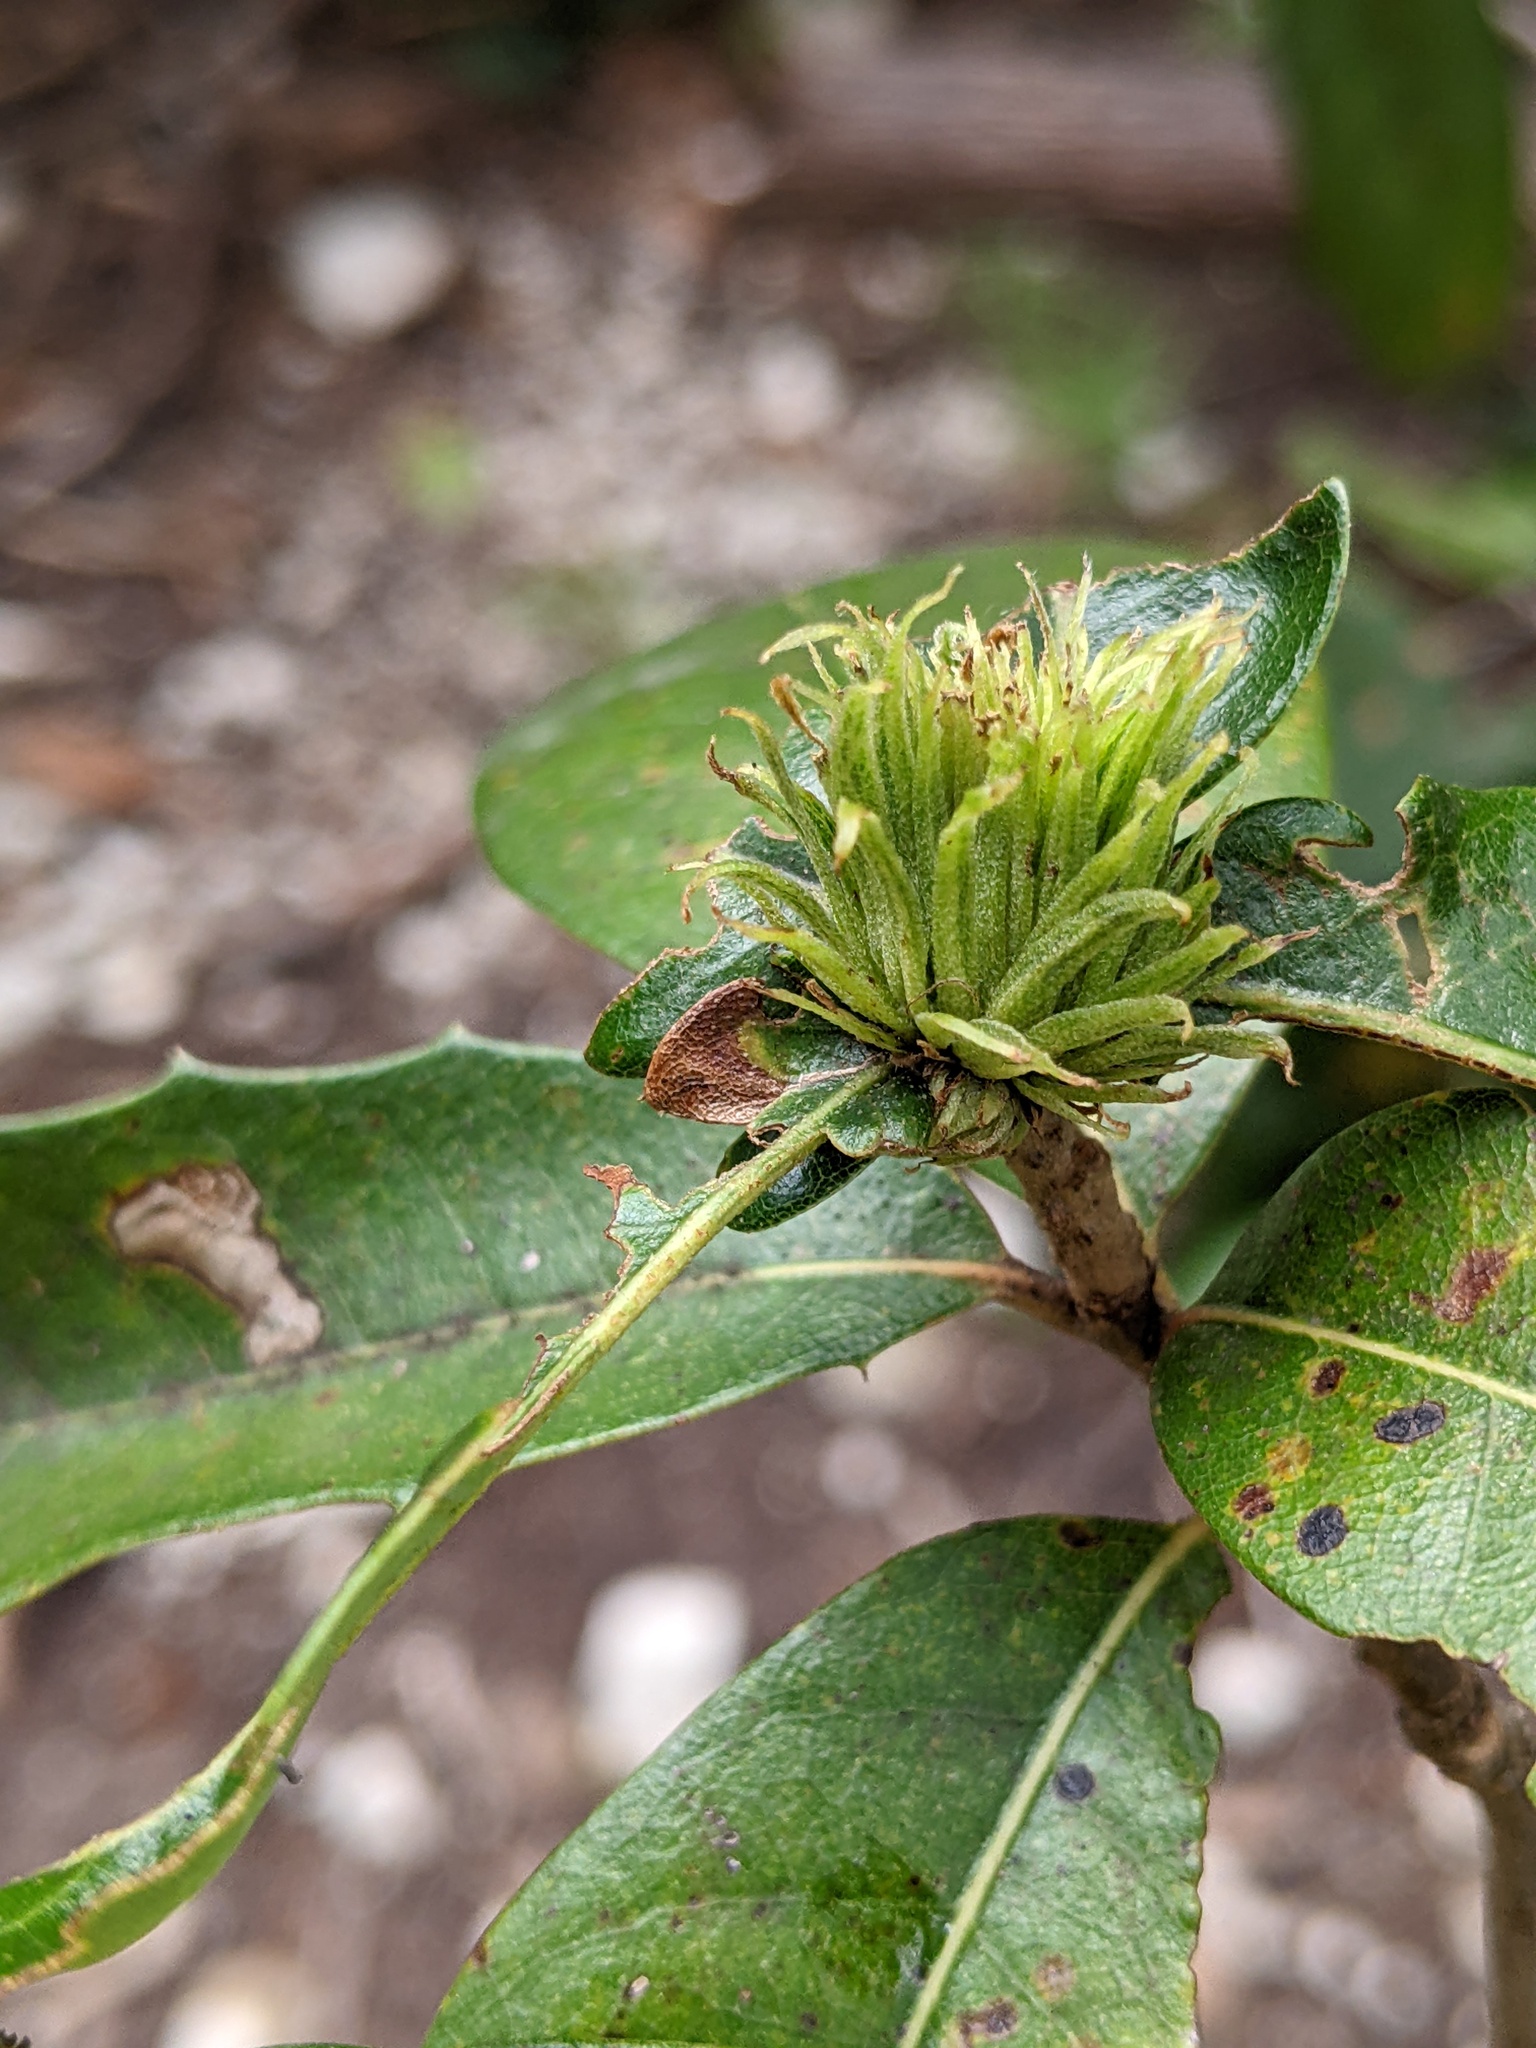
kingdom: Animalia
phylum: Arthropoda
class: Insecta
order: Hymenoptera
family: Cynipidae
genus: Andricus
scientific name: Andricus quercusfoliatus
